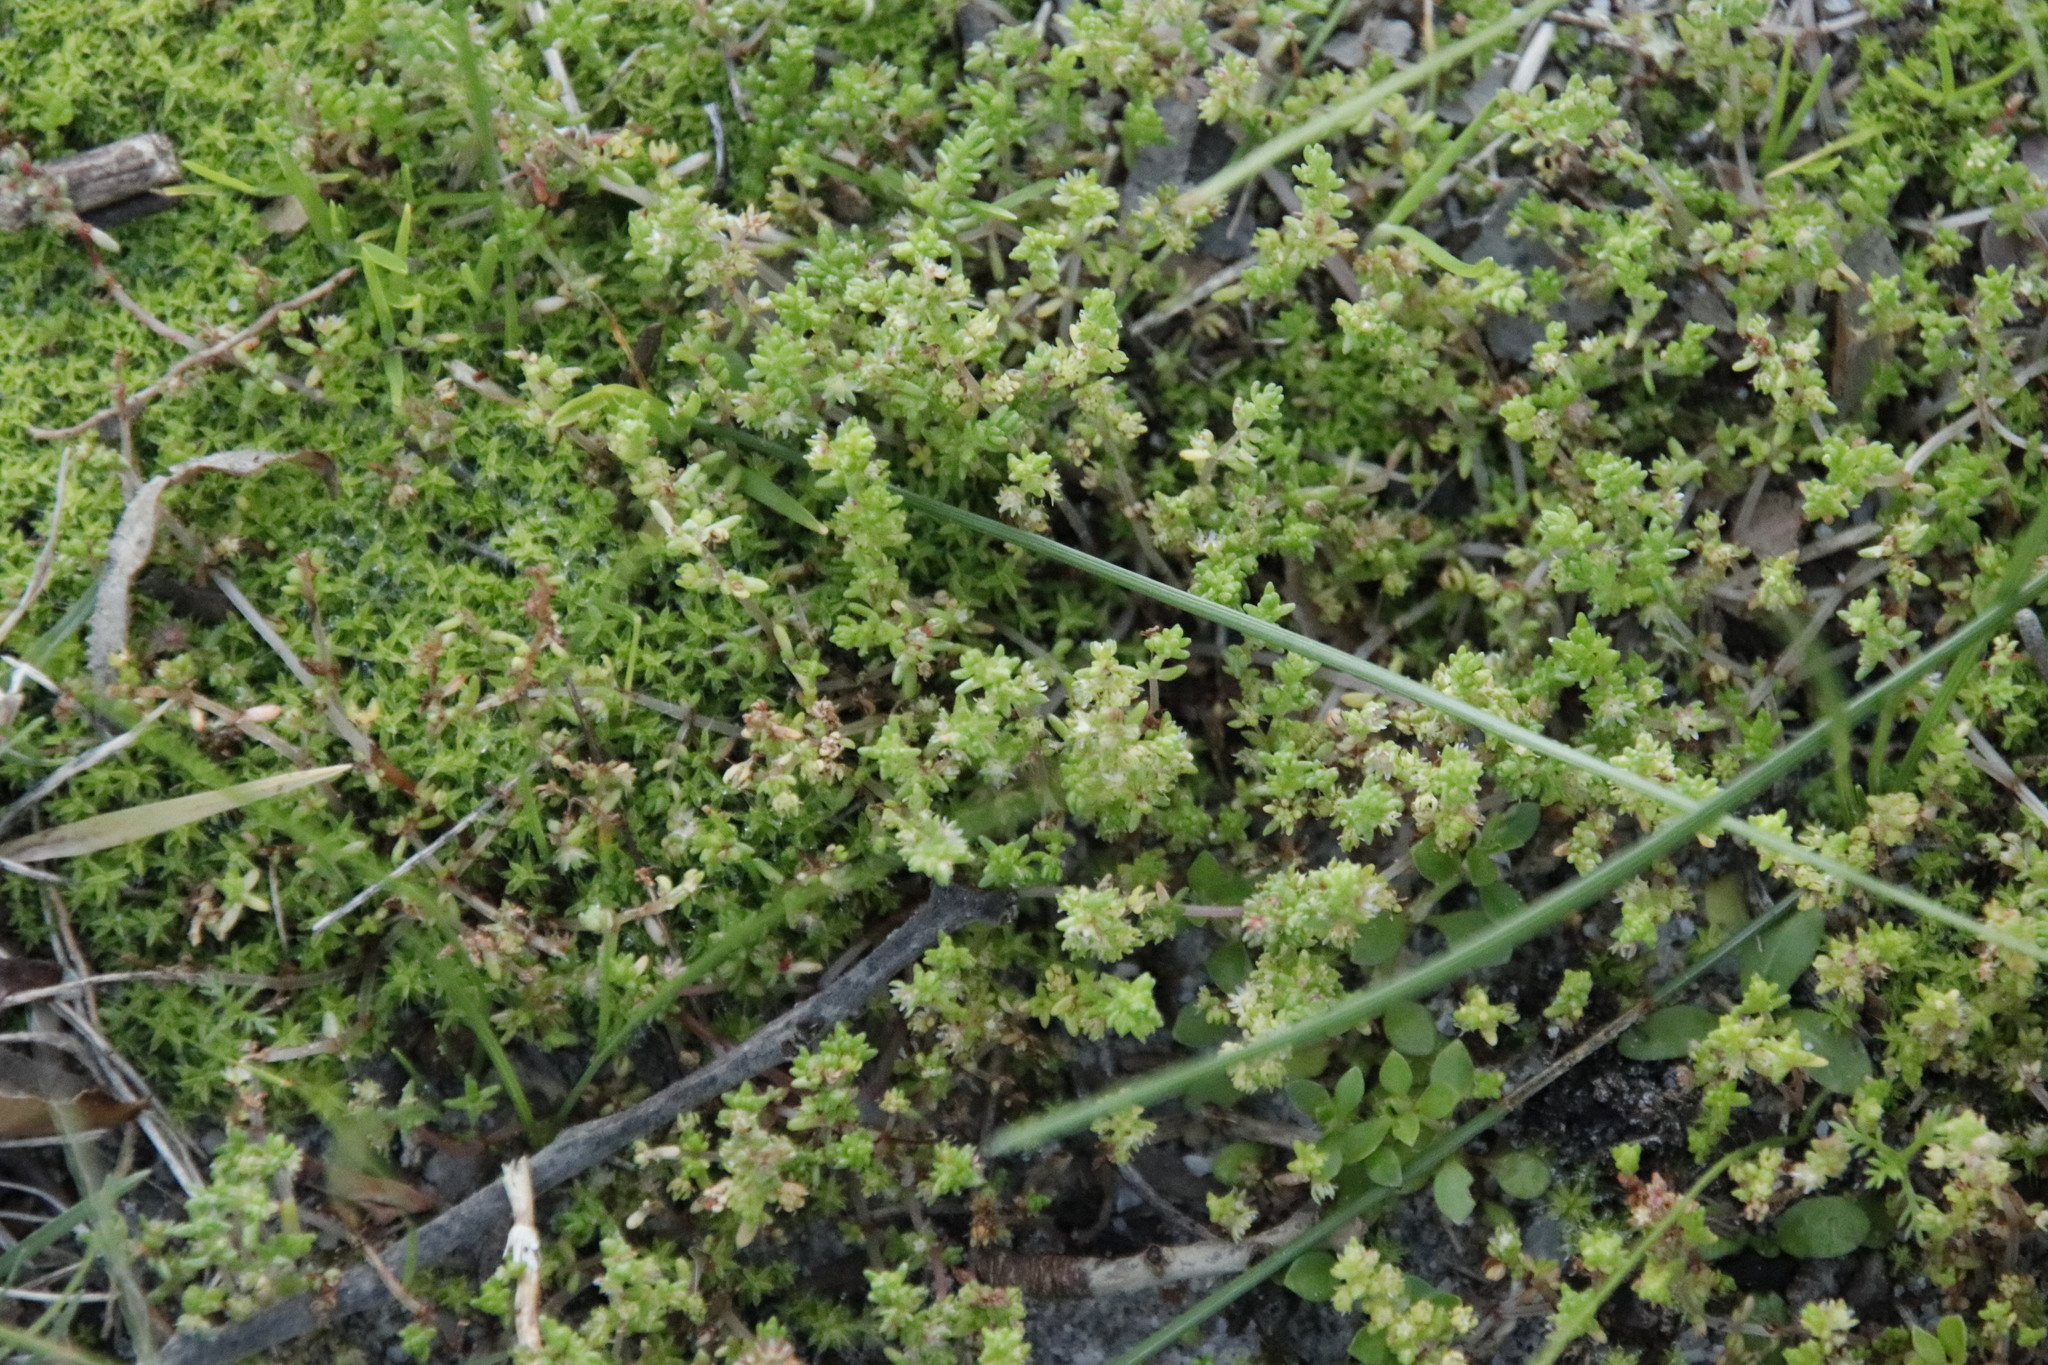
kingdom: Plantae
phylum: Tracheophyta
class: Magnoliopsida
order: Saxifragales
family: Crassulaceae
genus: Crassula
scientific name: Crassula thunbergiana
